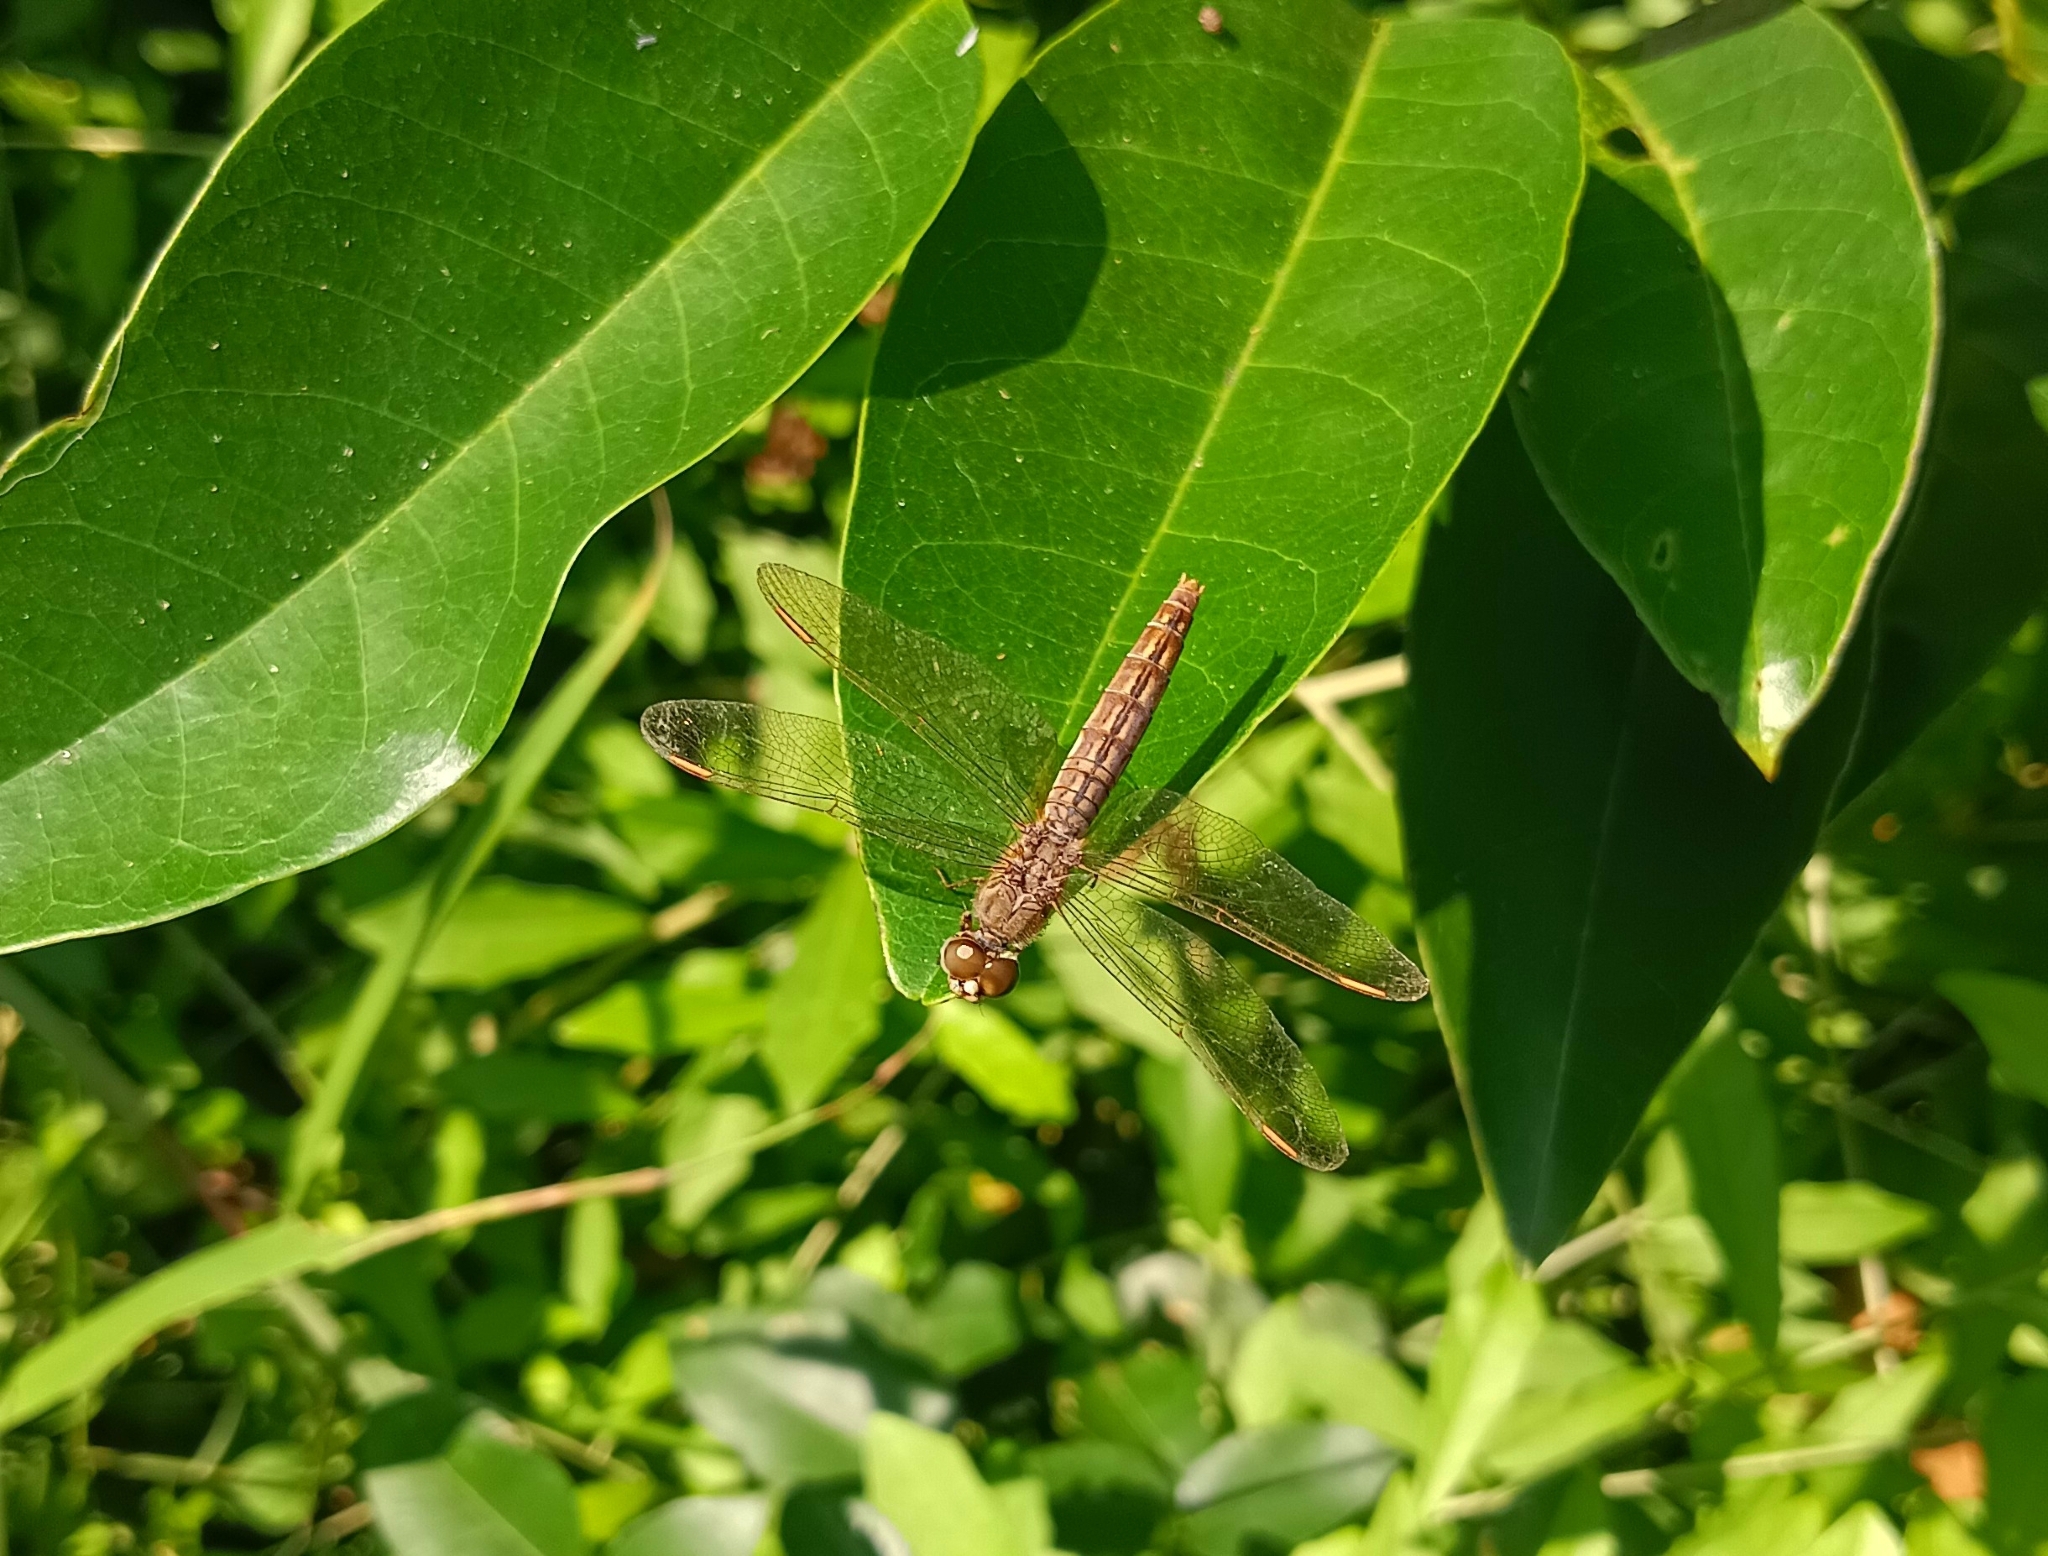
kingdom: Animalia
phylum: Arthropoda
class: Insecta
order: Odonata
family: Libellulidae
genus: Brachythemis
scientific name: Brachythemis contaminata
